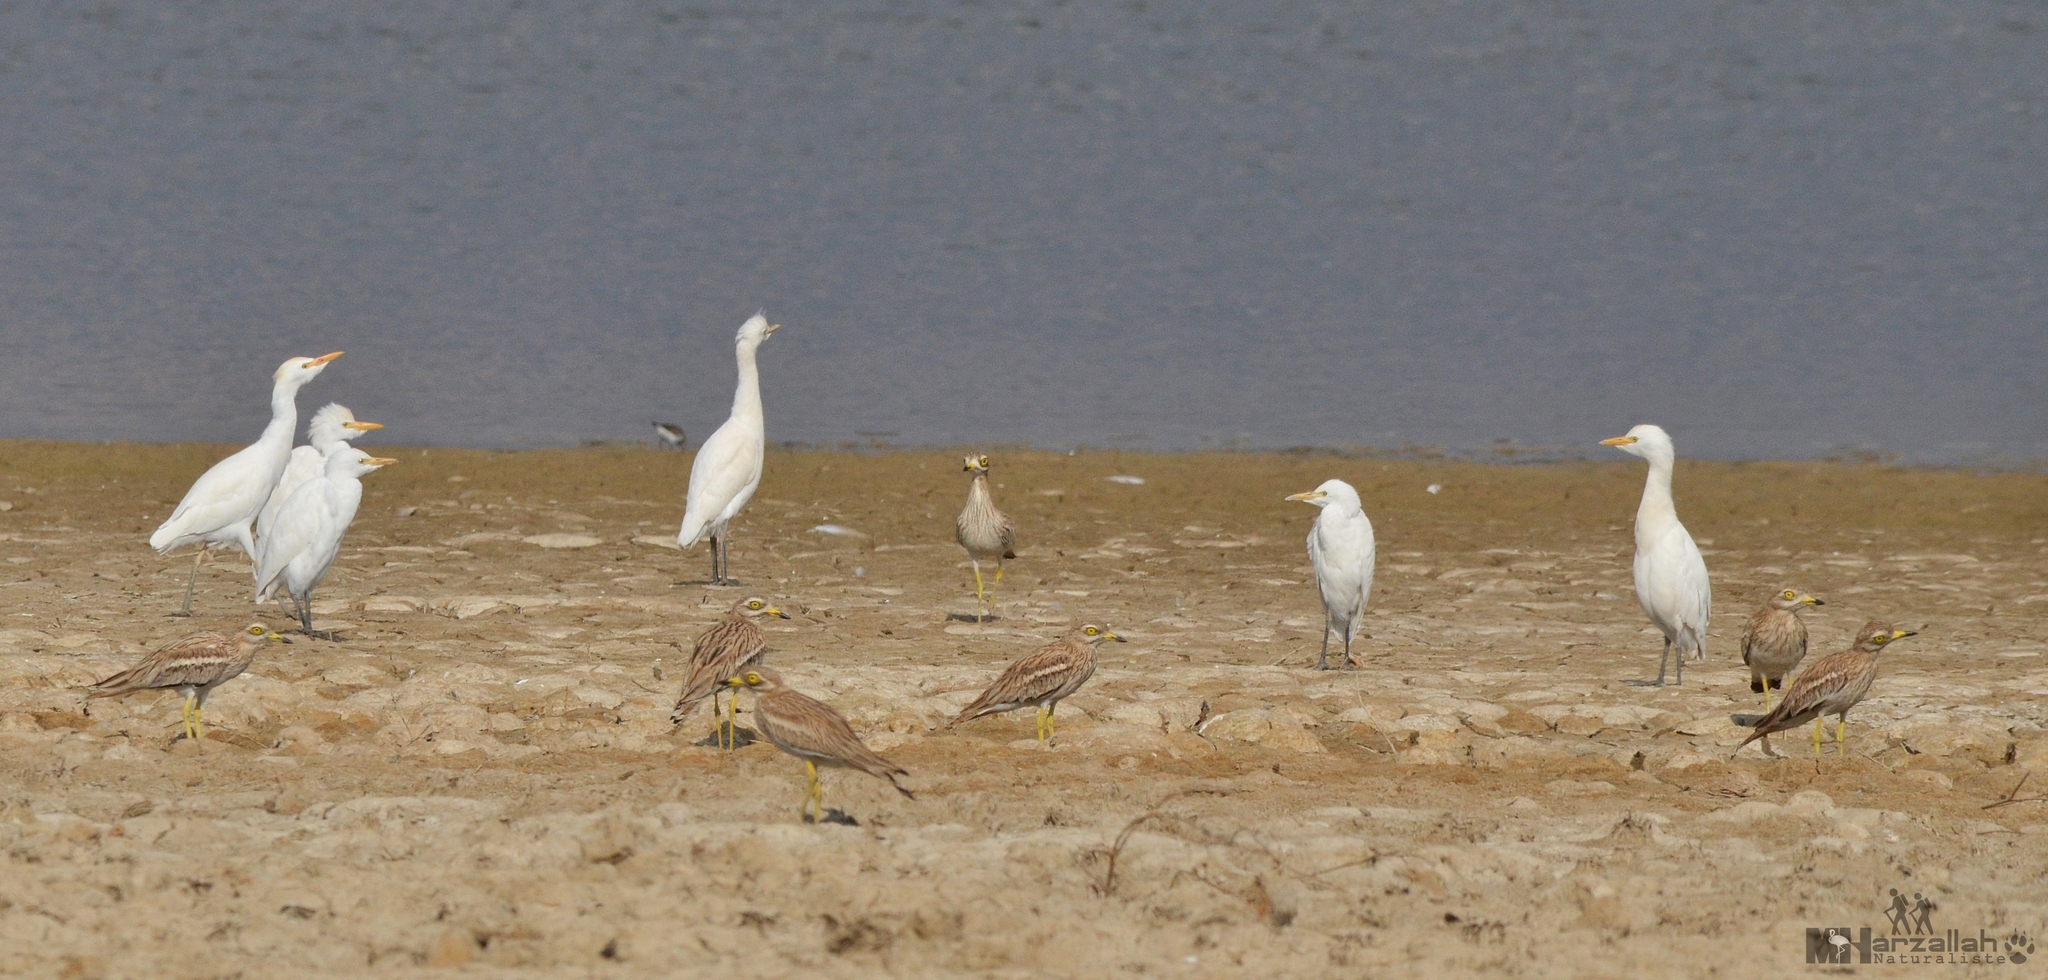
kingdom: Animalia
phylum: Chordata
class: Aves
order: Charadriiformes
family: Burhinidae
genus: Burhinus
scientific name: Burhinus oedicnemus
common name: Eurasian stone-curlew
